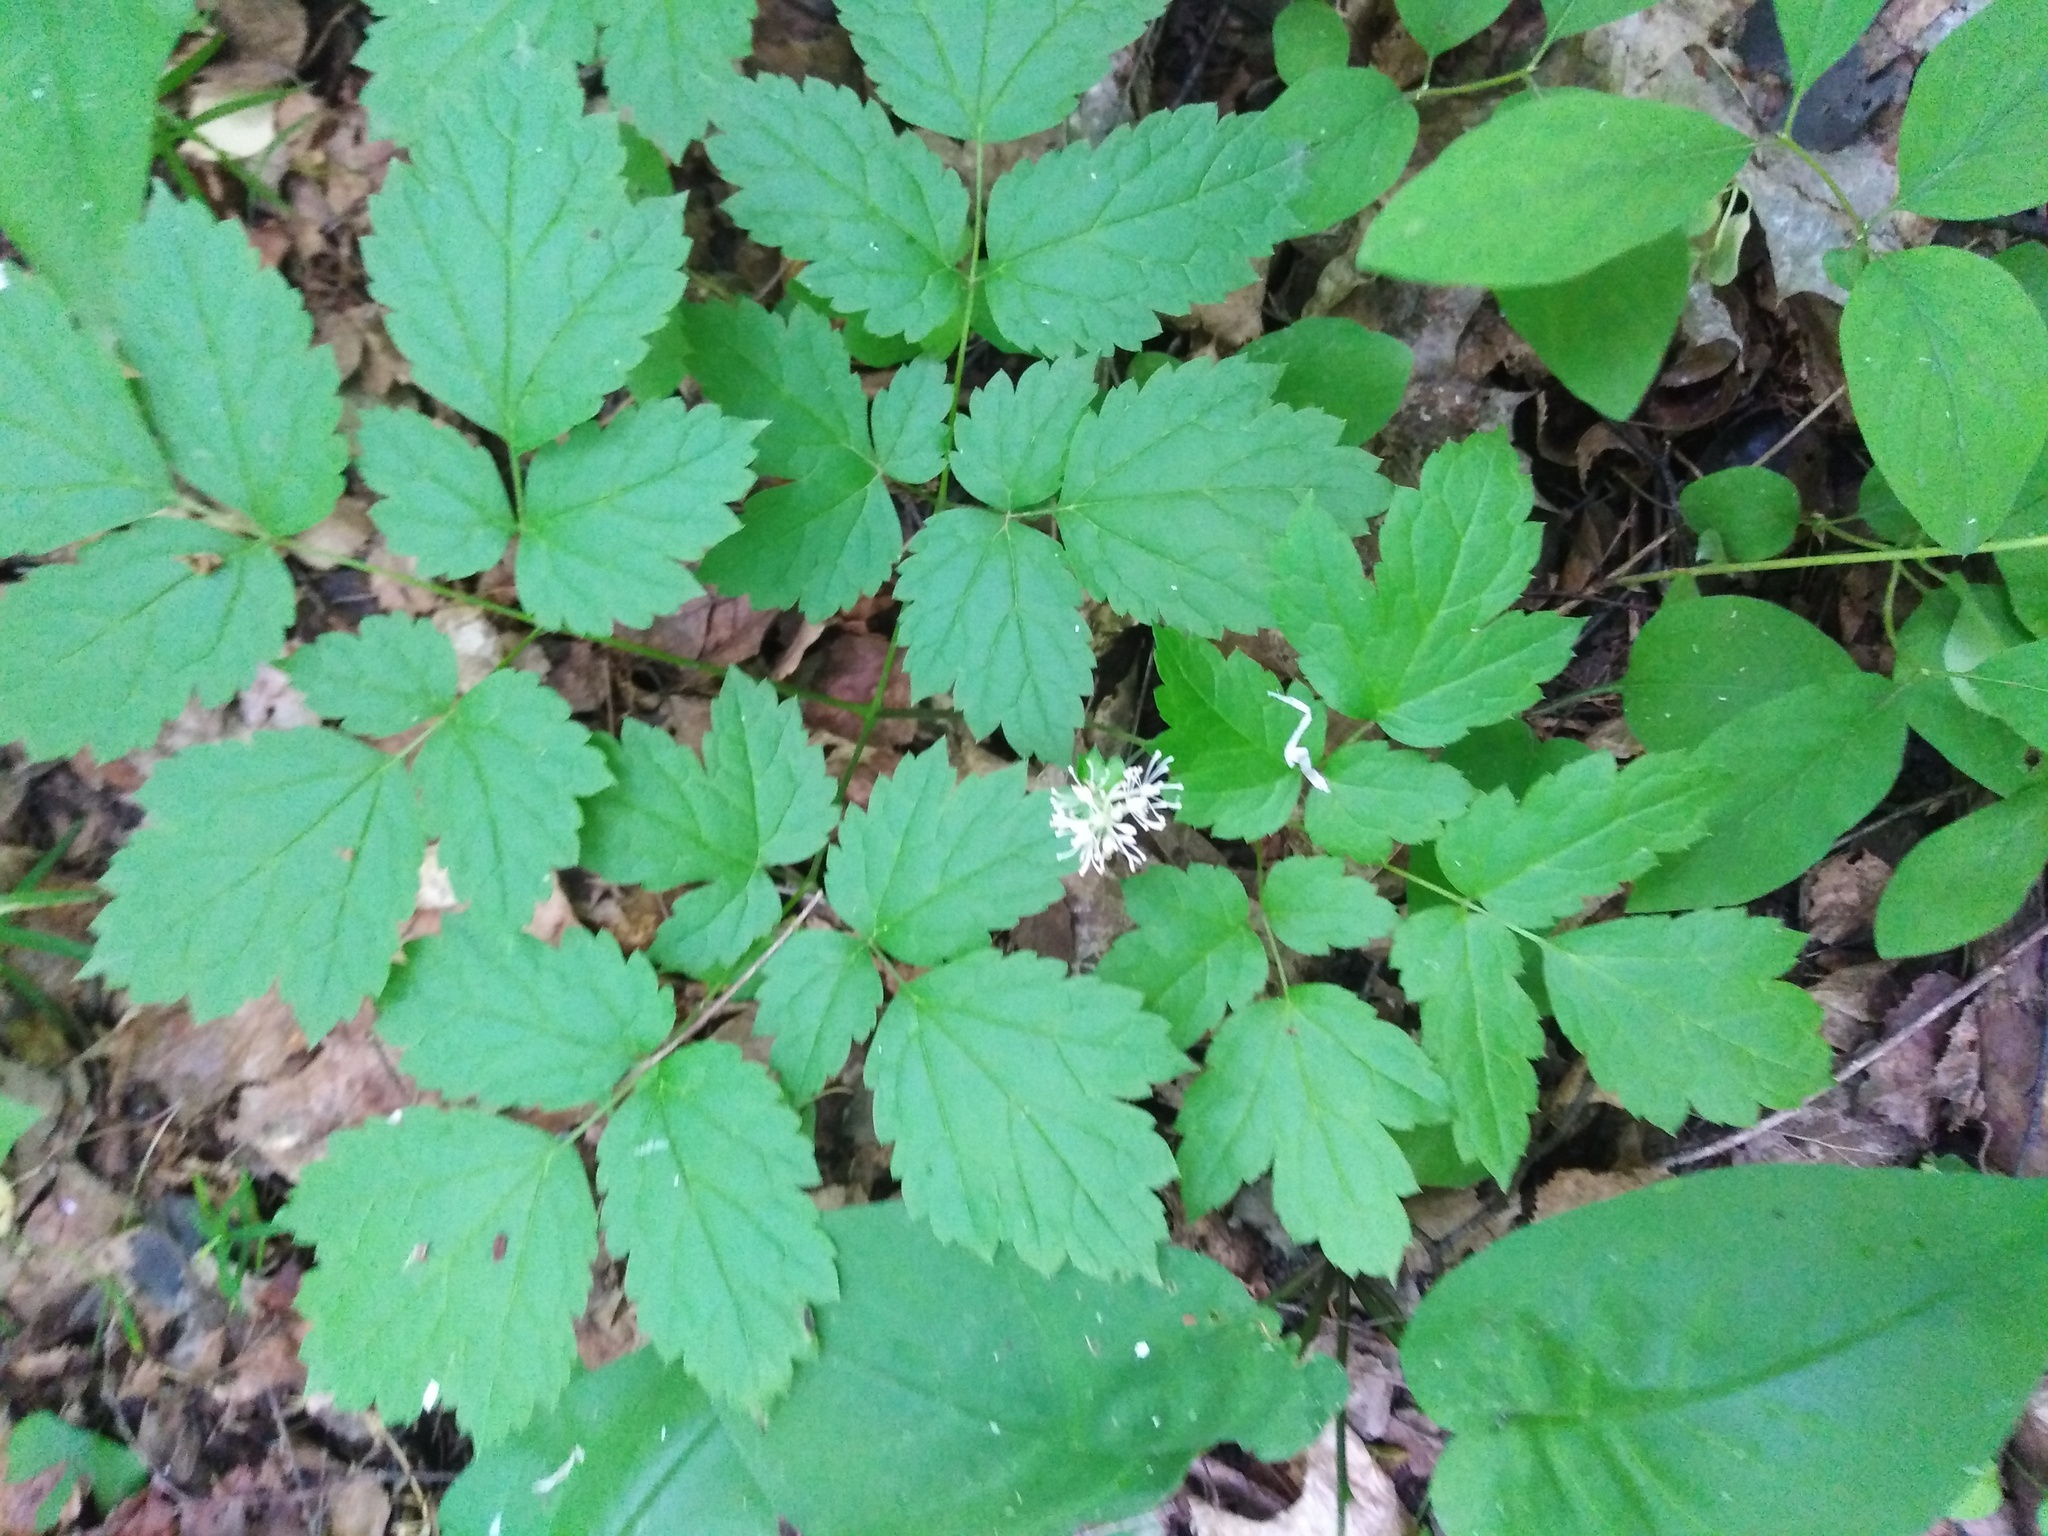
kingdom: Plantae
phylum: Tracheophyta
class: Magnoliopsida
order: Ranunculales
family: Ranunculaceae
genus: Actaea
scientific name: Actaea spicata
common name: Baneberry
